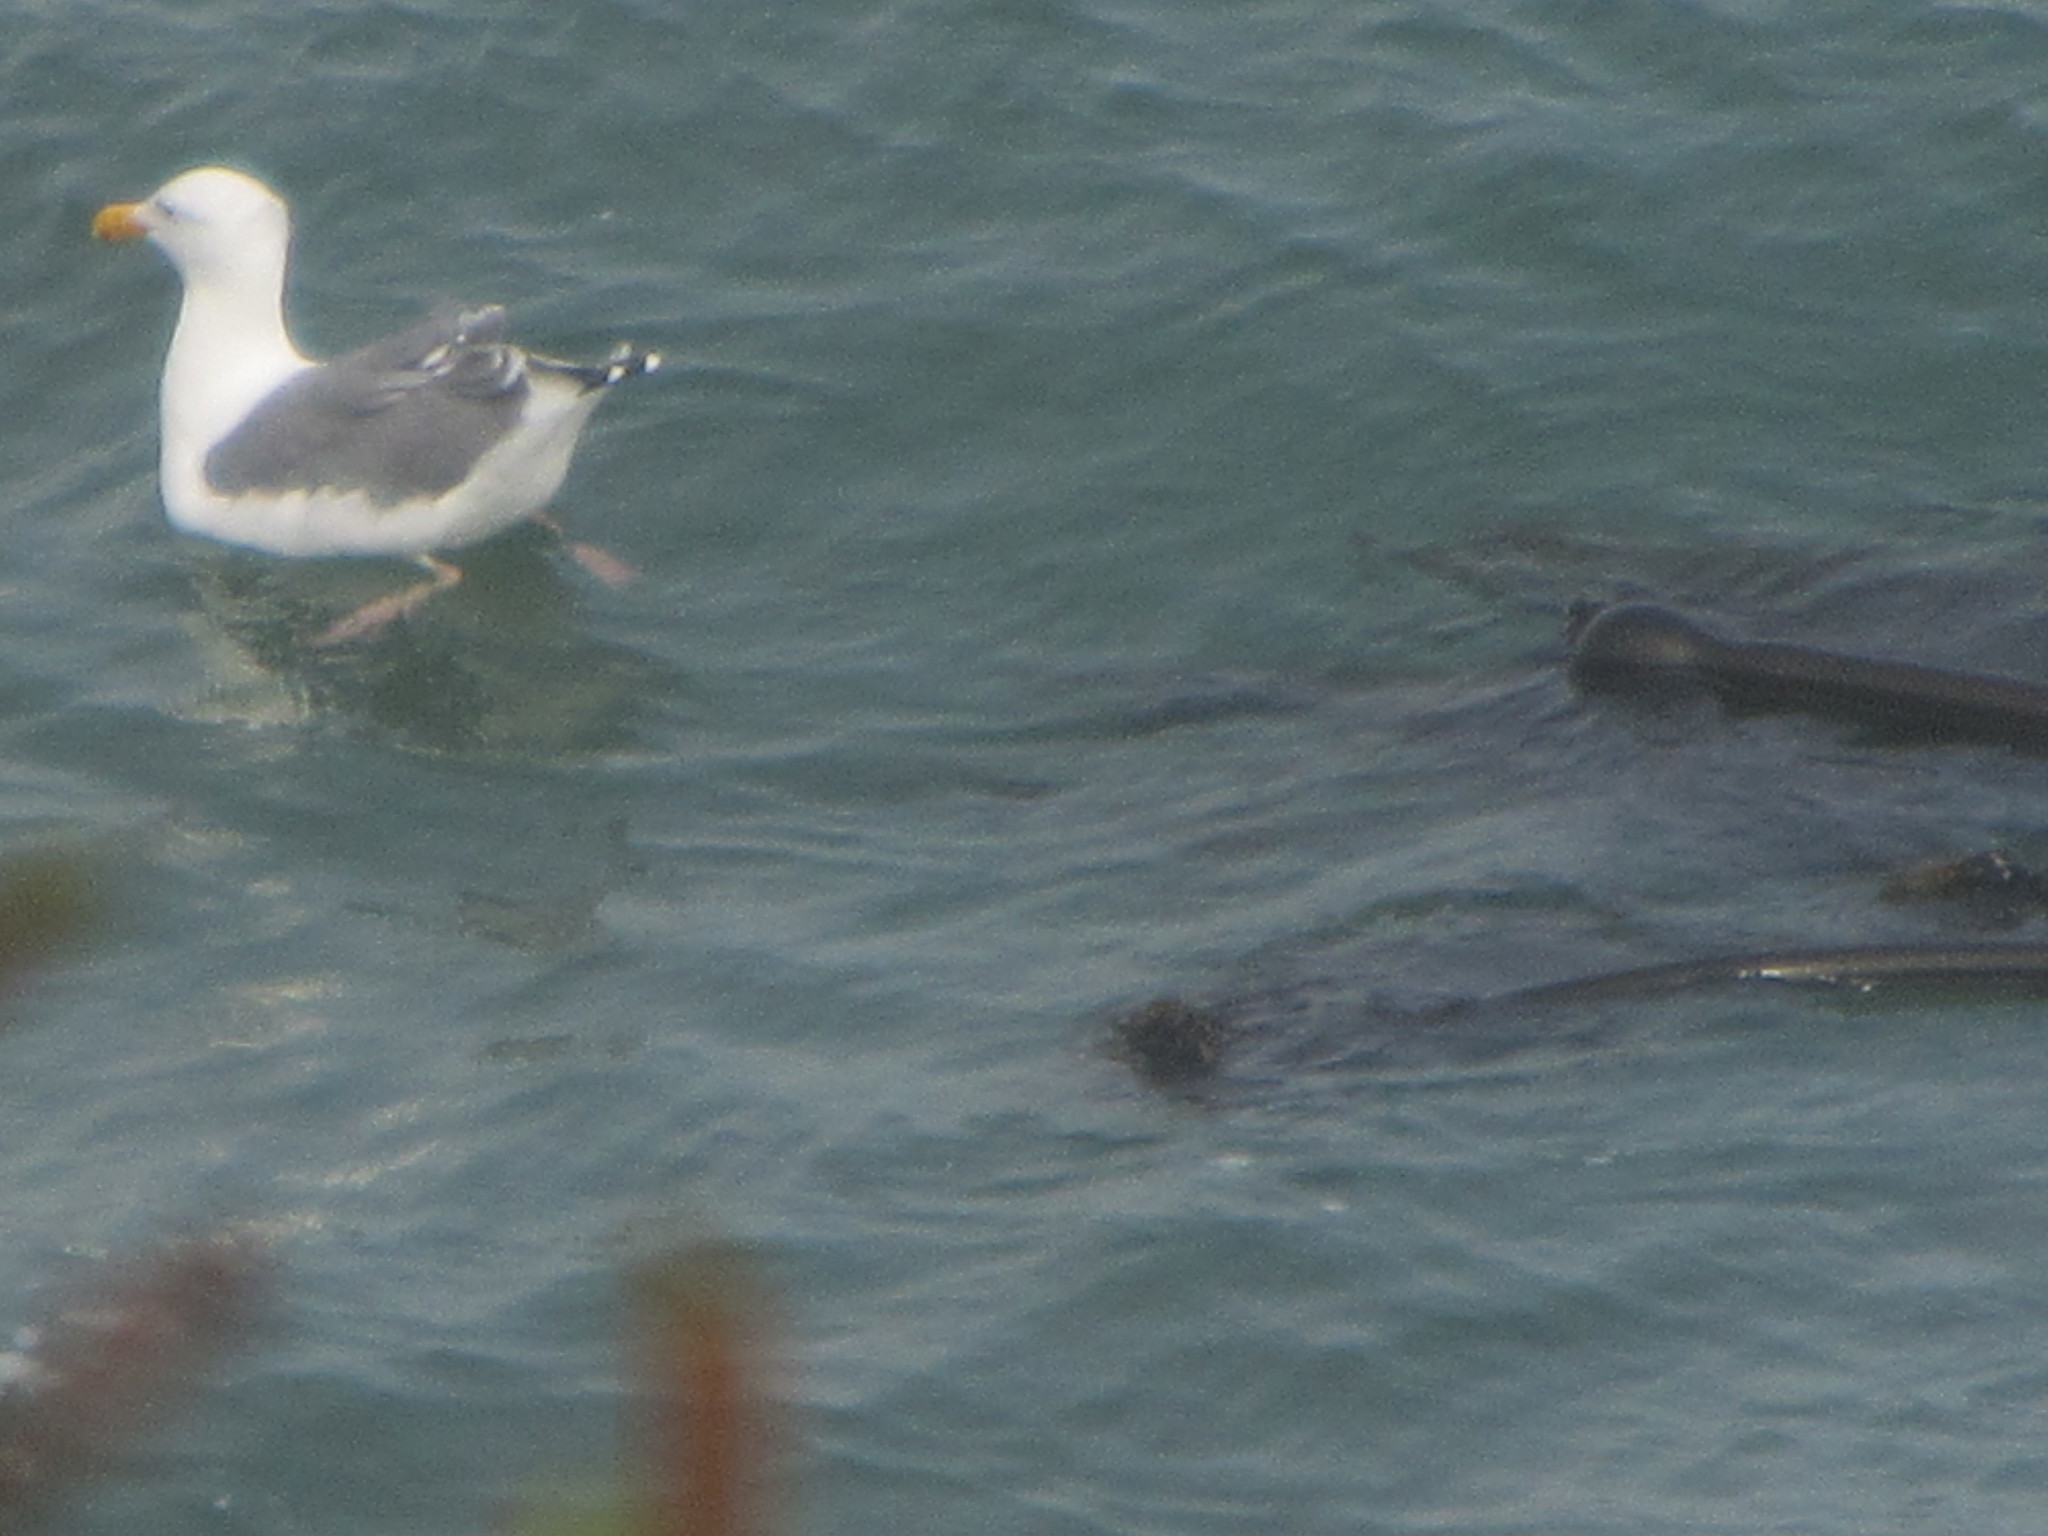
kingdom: Animalia
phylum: Chordata
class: Aves
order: Charadriiformes
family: Laridae
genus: Larus
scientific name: Larus occidentalis
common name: Western gull
